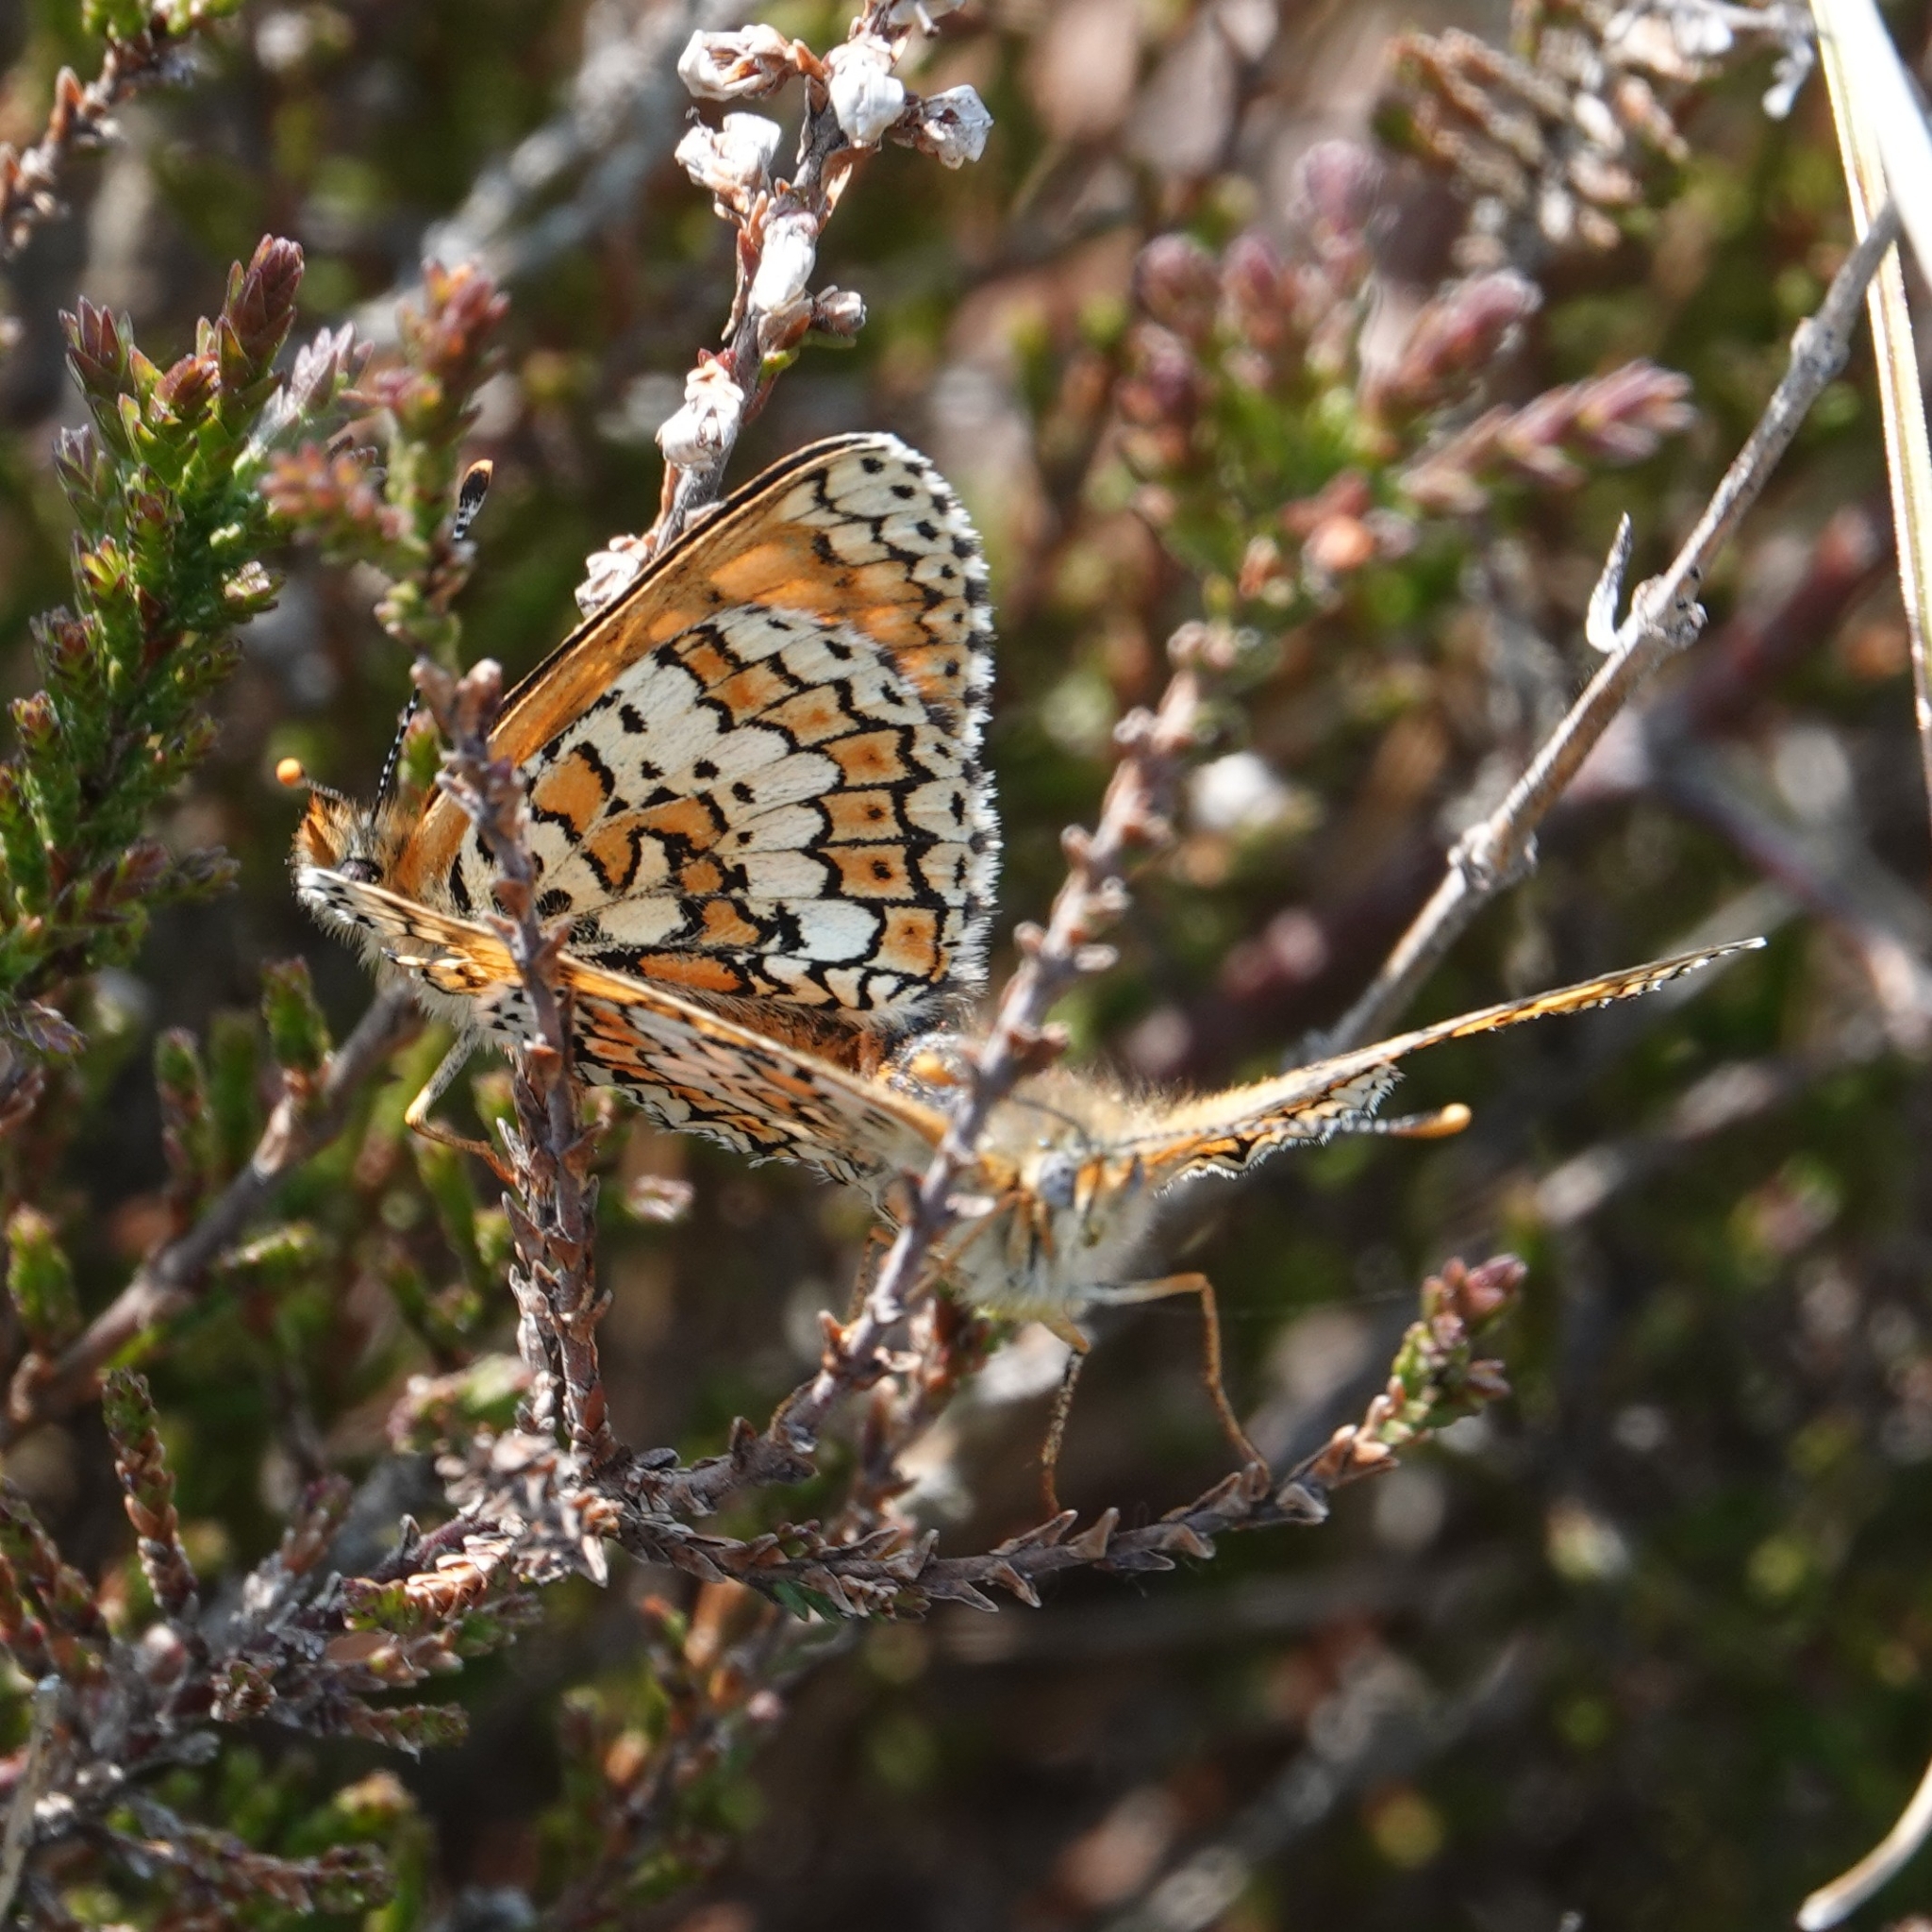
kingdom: Animalia
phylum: Arthropoda
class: Insecta
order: Lepidoptera
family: Nymphalidae
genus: Melitaea
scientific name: Melitaea cinxia
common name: Glanville fritillary
